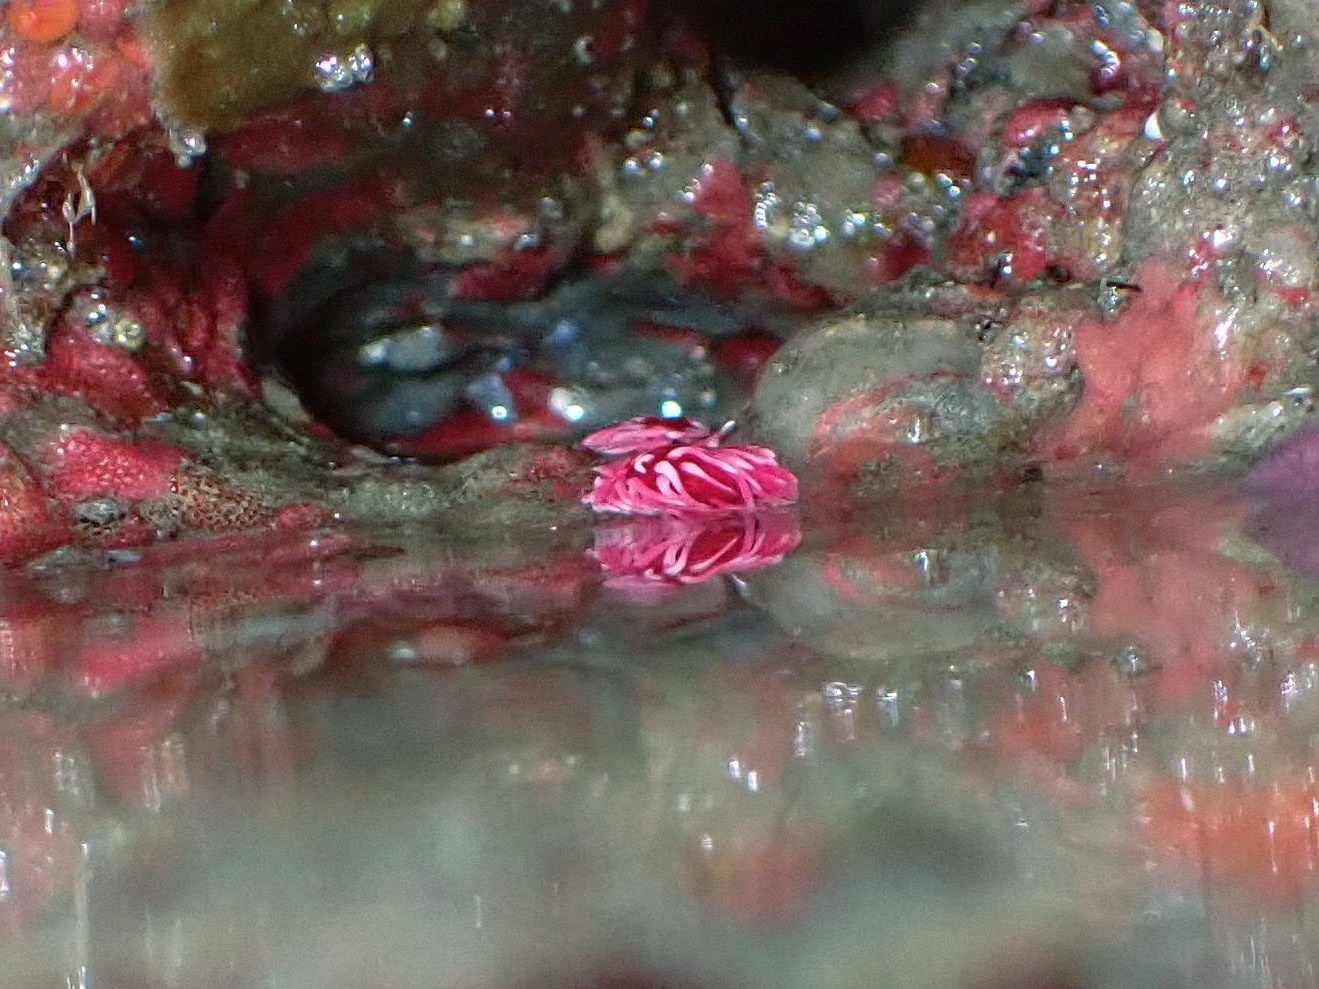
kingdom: Animalia
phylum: Mollusca
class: Gastropoda
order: Nudibranchia
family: Goniodorididae
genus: Okenia
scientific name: Okenia
